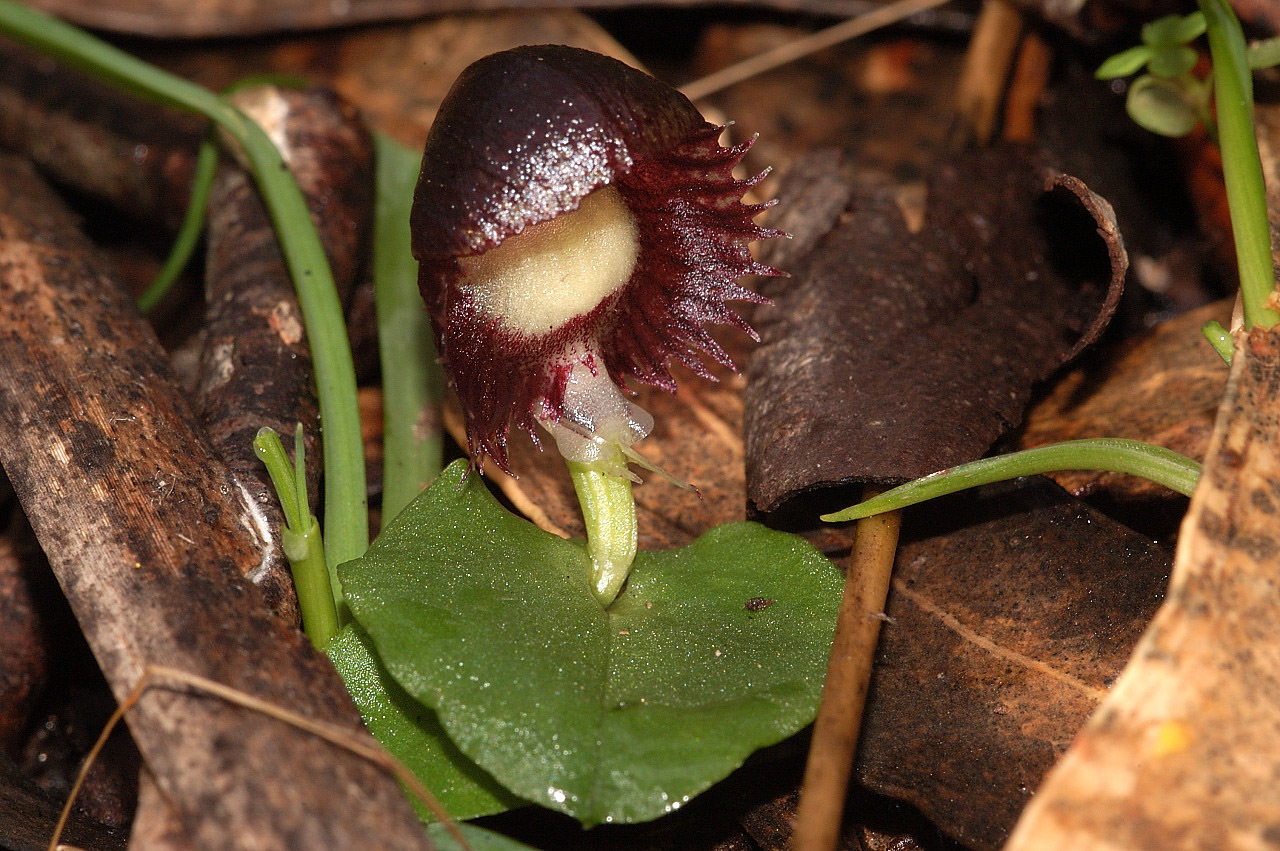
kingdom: Plantae
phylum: Tracheophyta
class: Liliopsida
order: Asparagales
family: Orchidaceae
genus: Corybas
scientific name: Corybas diemenicus
